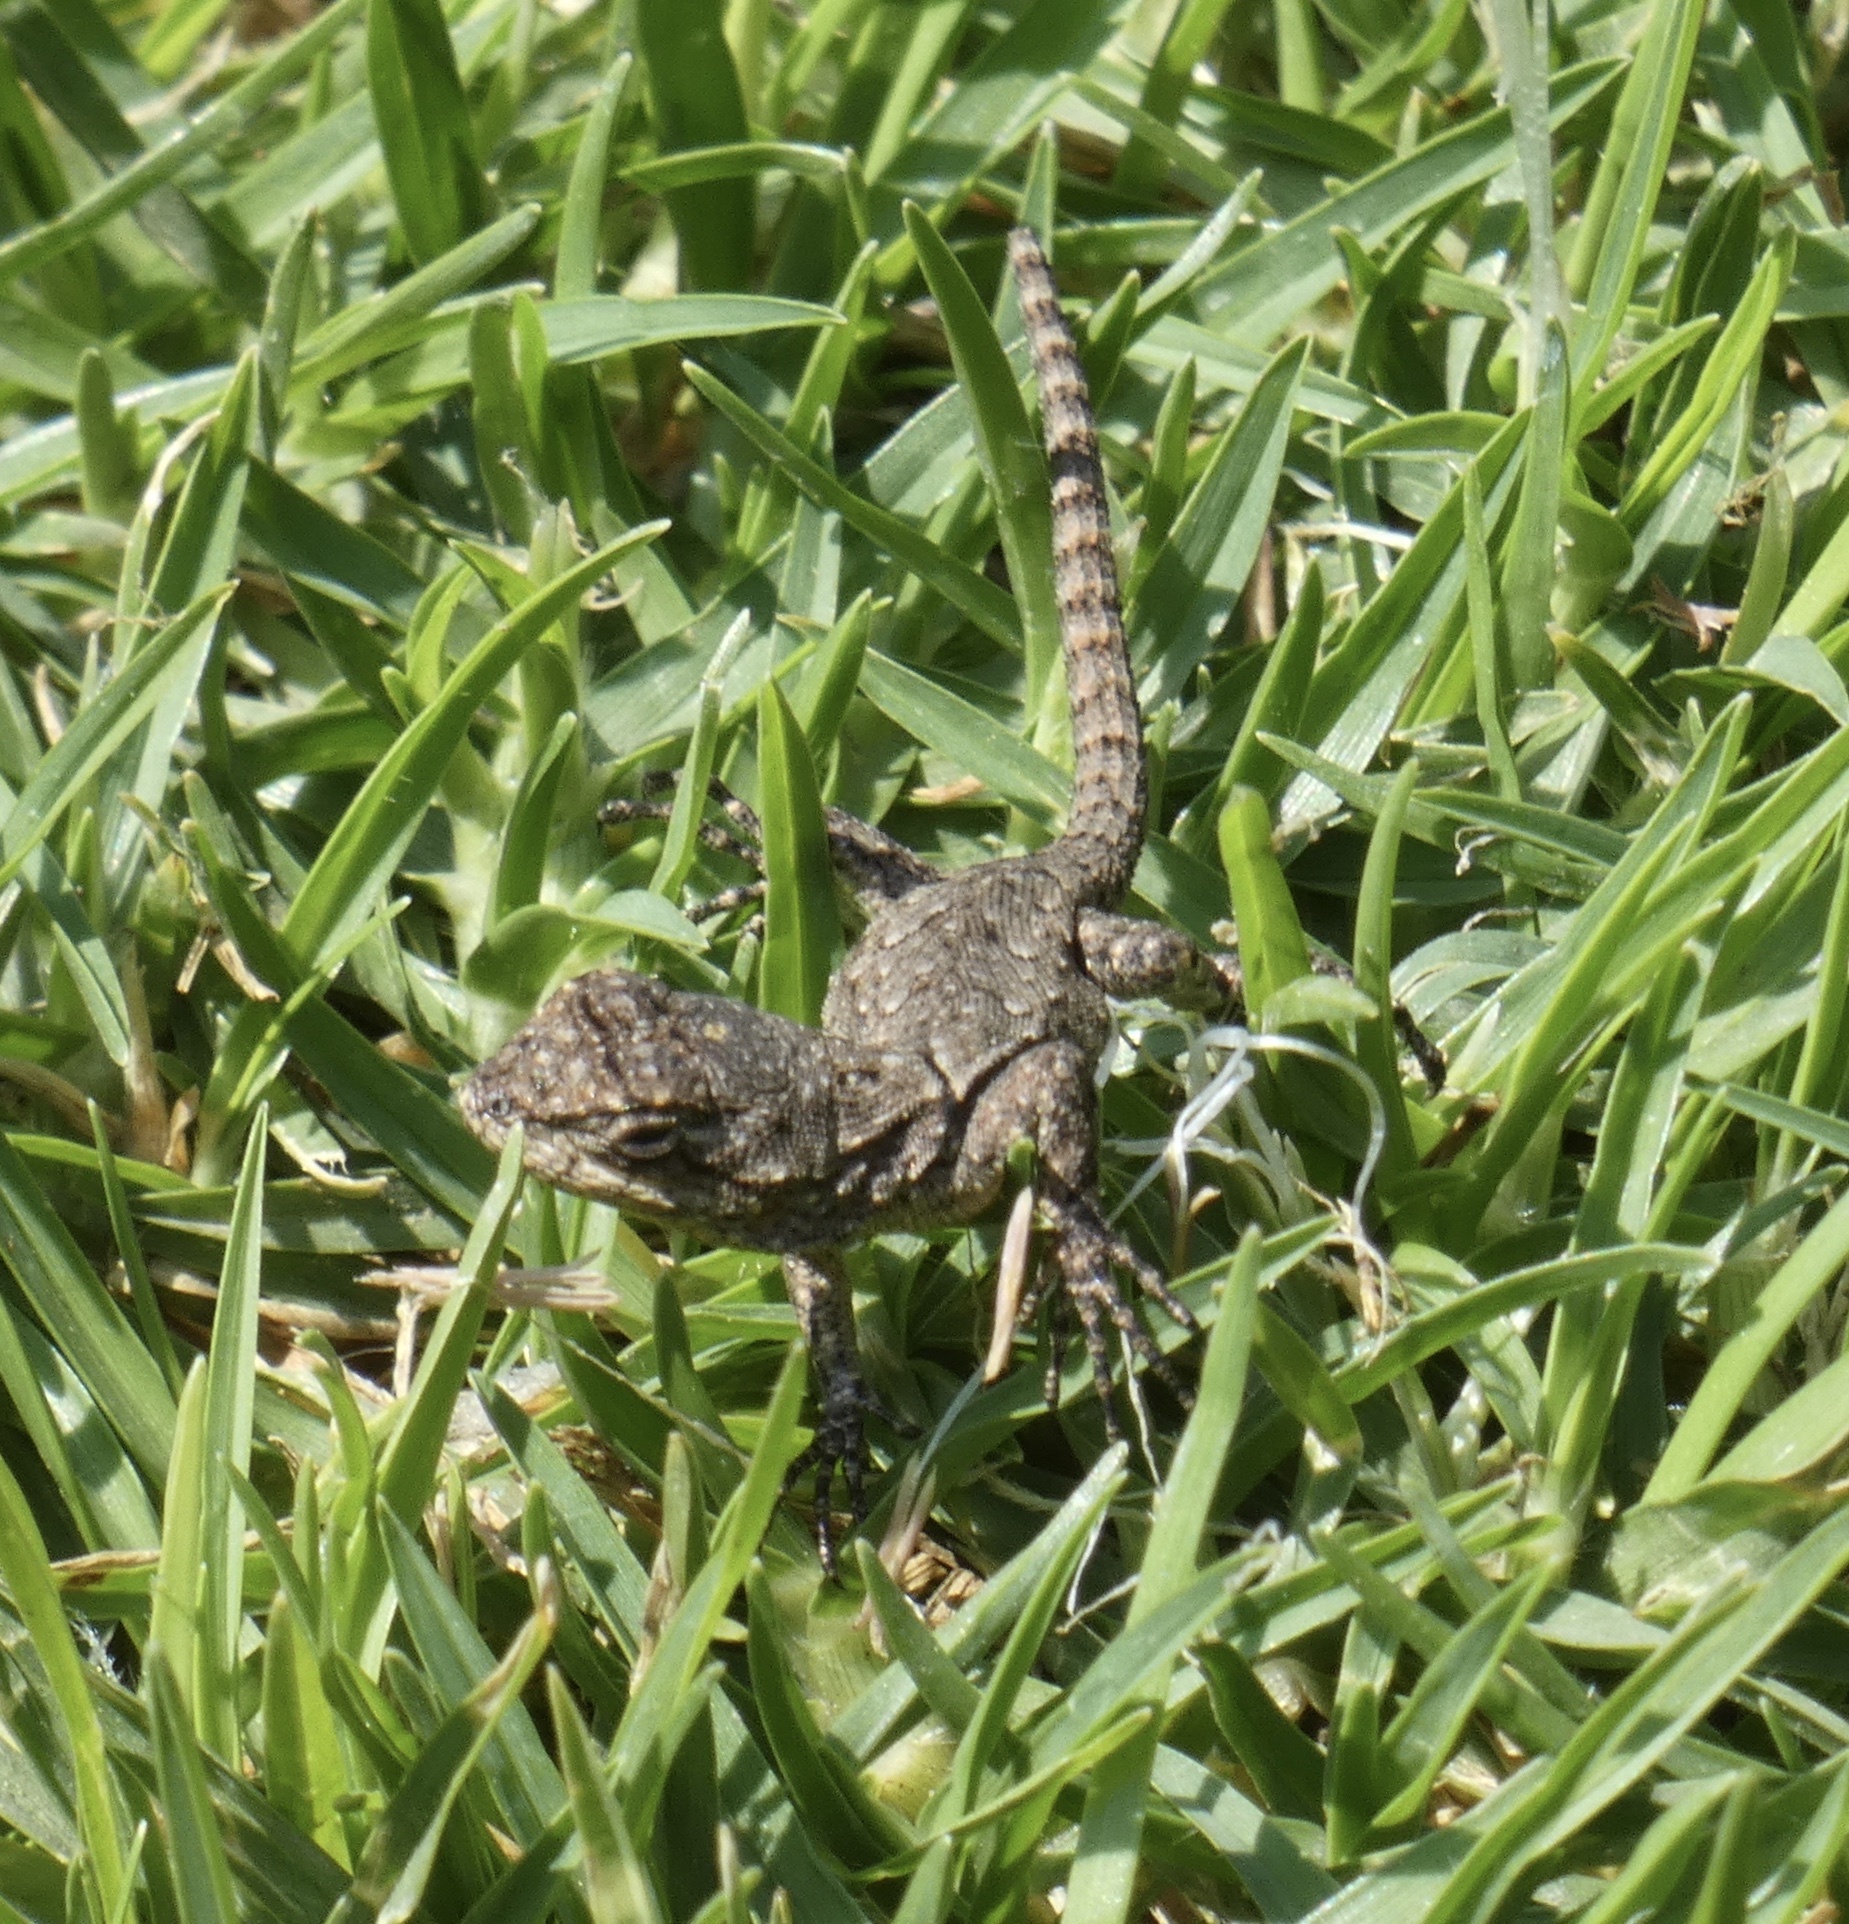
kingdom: Animalia
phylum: Chordata
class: Squamata
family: Phrynosomatidae
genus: Sceloporus
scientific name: Sceloporus grammicus
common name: Mesquite lizard
